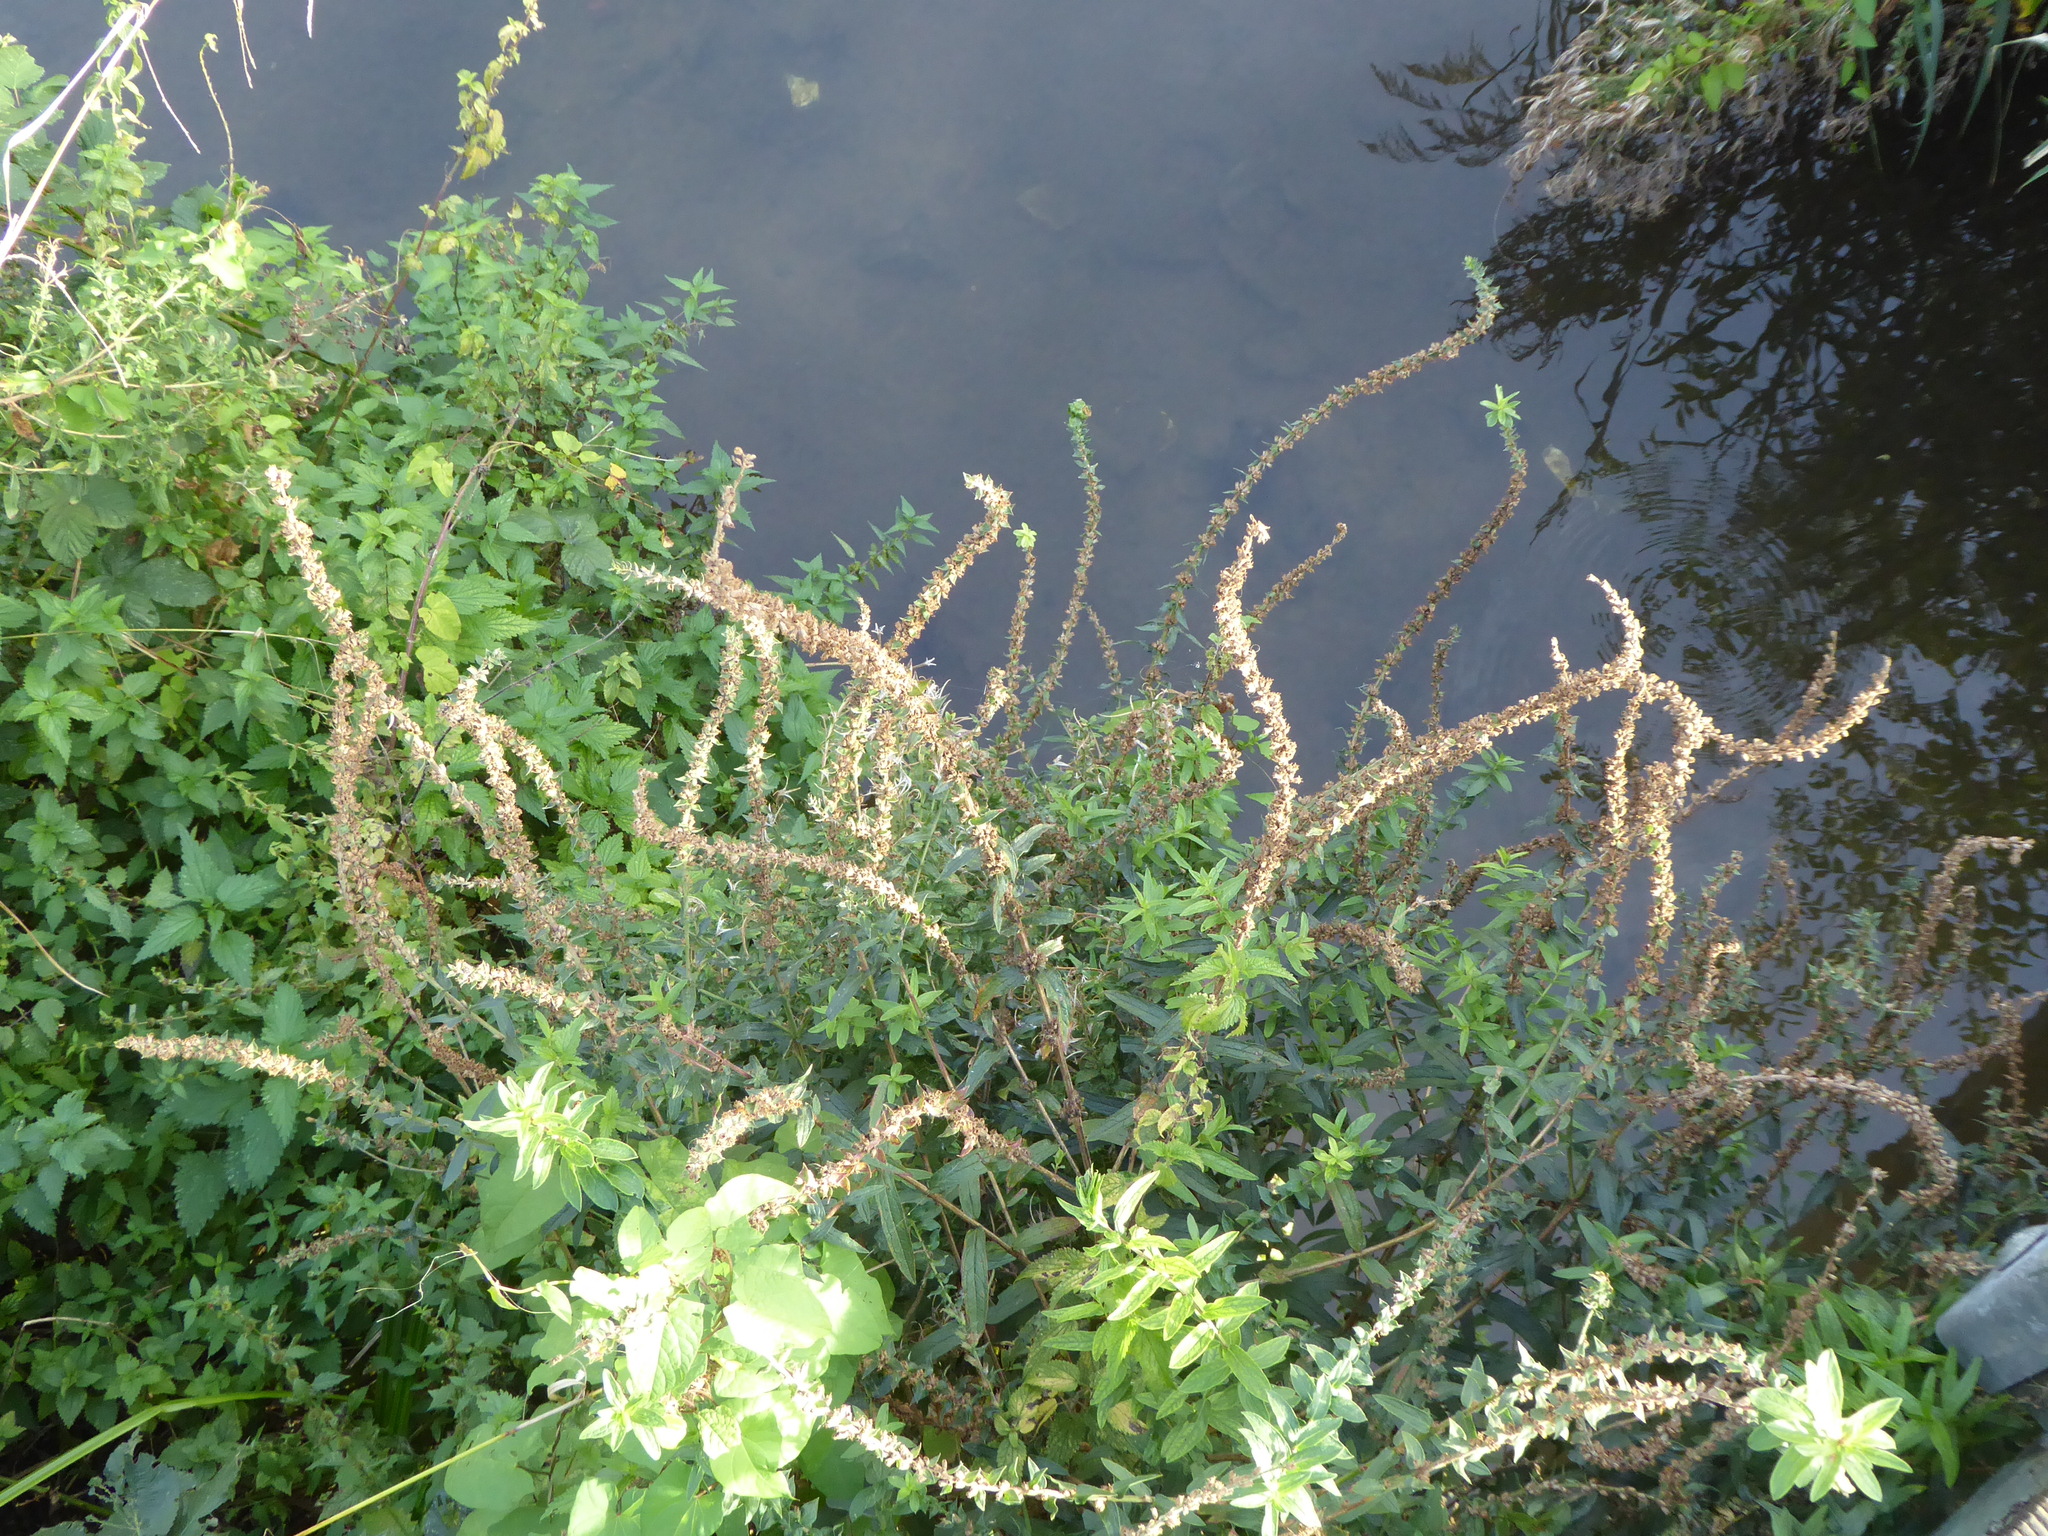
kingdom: Plantae
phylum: Tracheophyta
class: Magnoliopsida
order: Myrtales
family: Lythraceae
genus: Lythrum
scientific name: Lythrum salicaria
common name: Purple loosestrife
